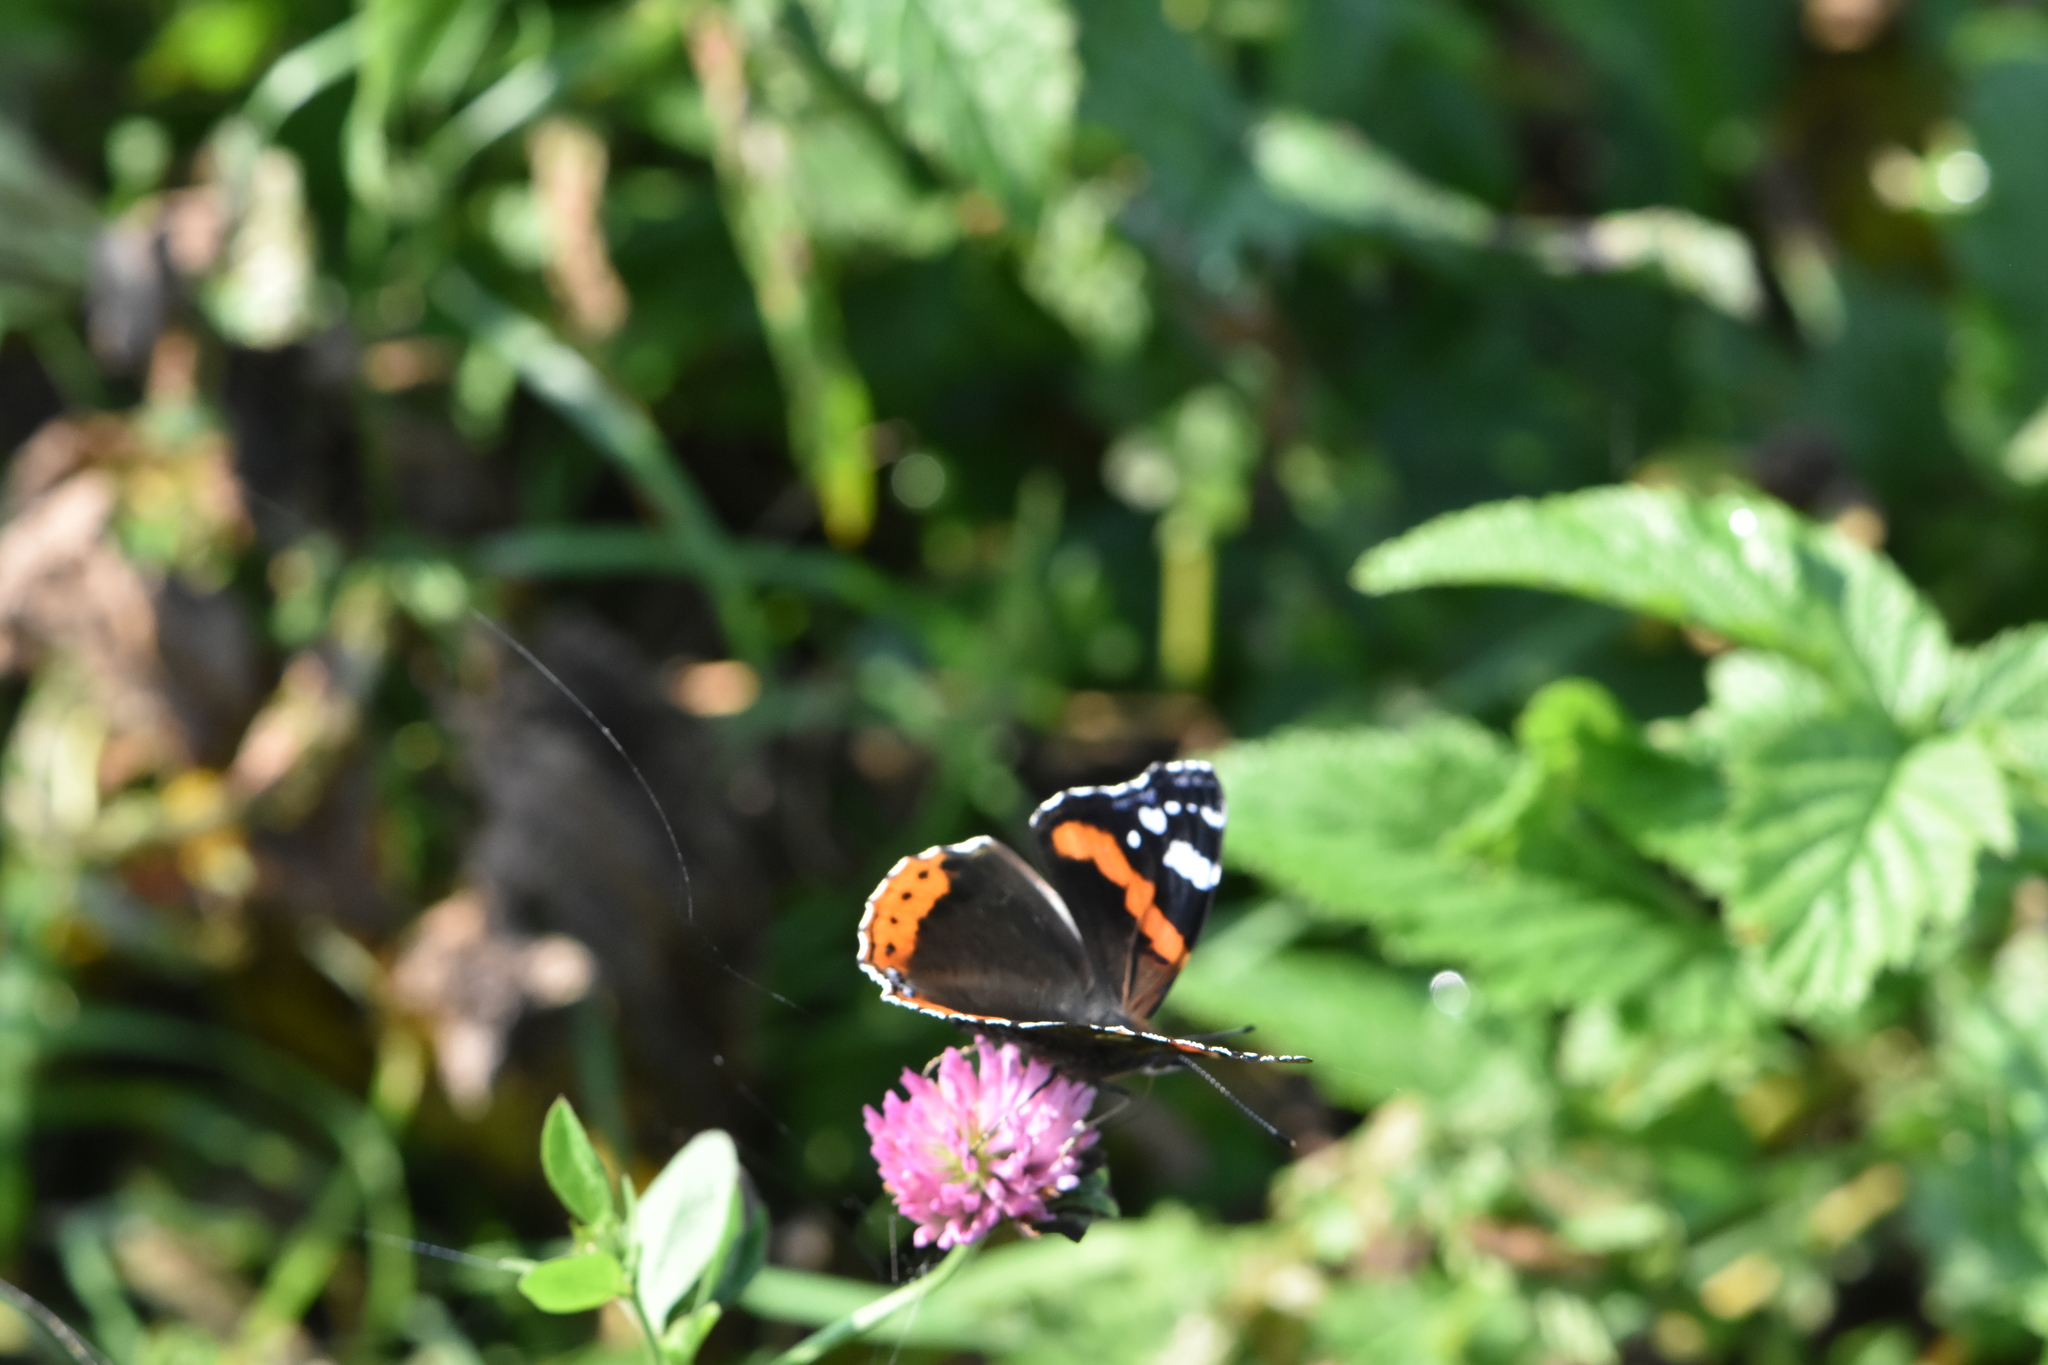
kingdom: Animalia
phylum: Arthropoda
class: Insecta
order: Lepidoptera
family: Nymphalidae
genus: Vanessa
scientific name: Vanessa atalanta
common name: Red admiral
